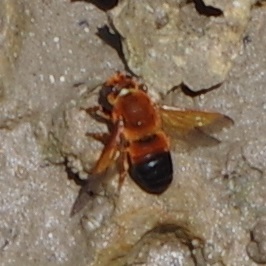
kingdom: Animalia
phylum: Arthropoda
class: Insecta
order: Hymenoptera
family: Megachilidae
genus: Megachile
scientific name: Megachile velutina
